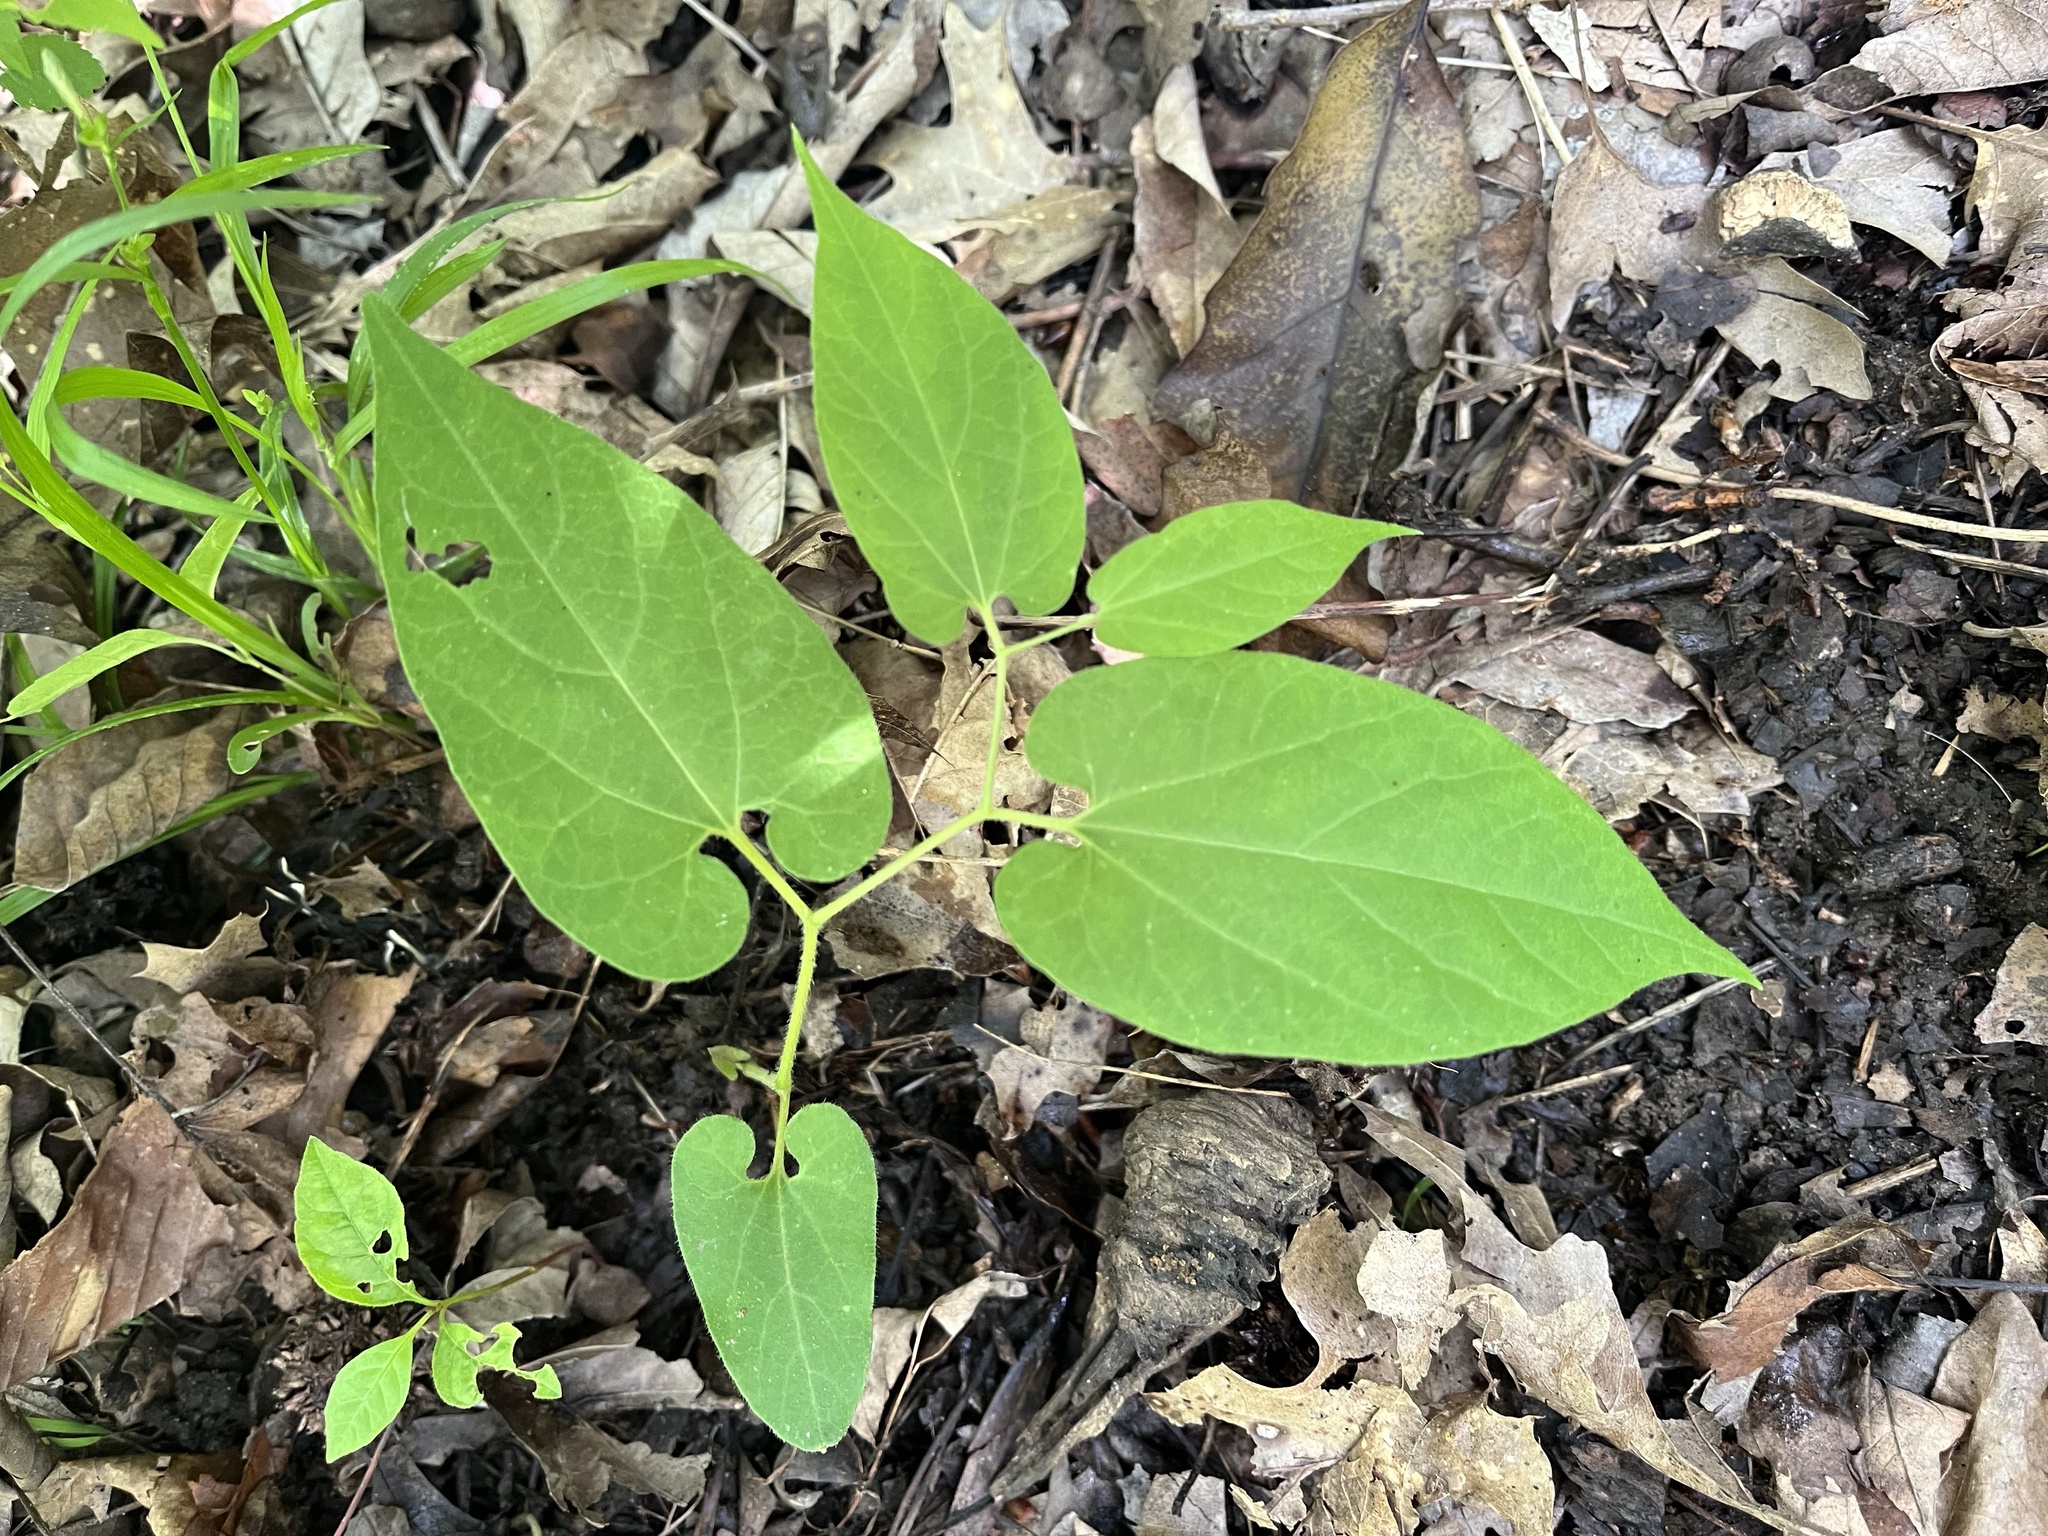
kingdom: Plantae
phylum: Tracheophyta
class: Magnoliopsida
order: Piperales
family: Aristolochiaceae
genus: Endodeca
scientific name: Endodeca serpentaria
